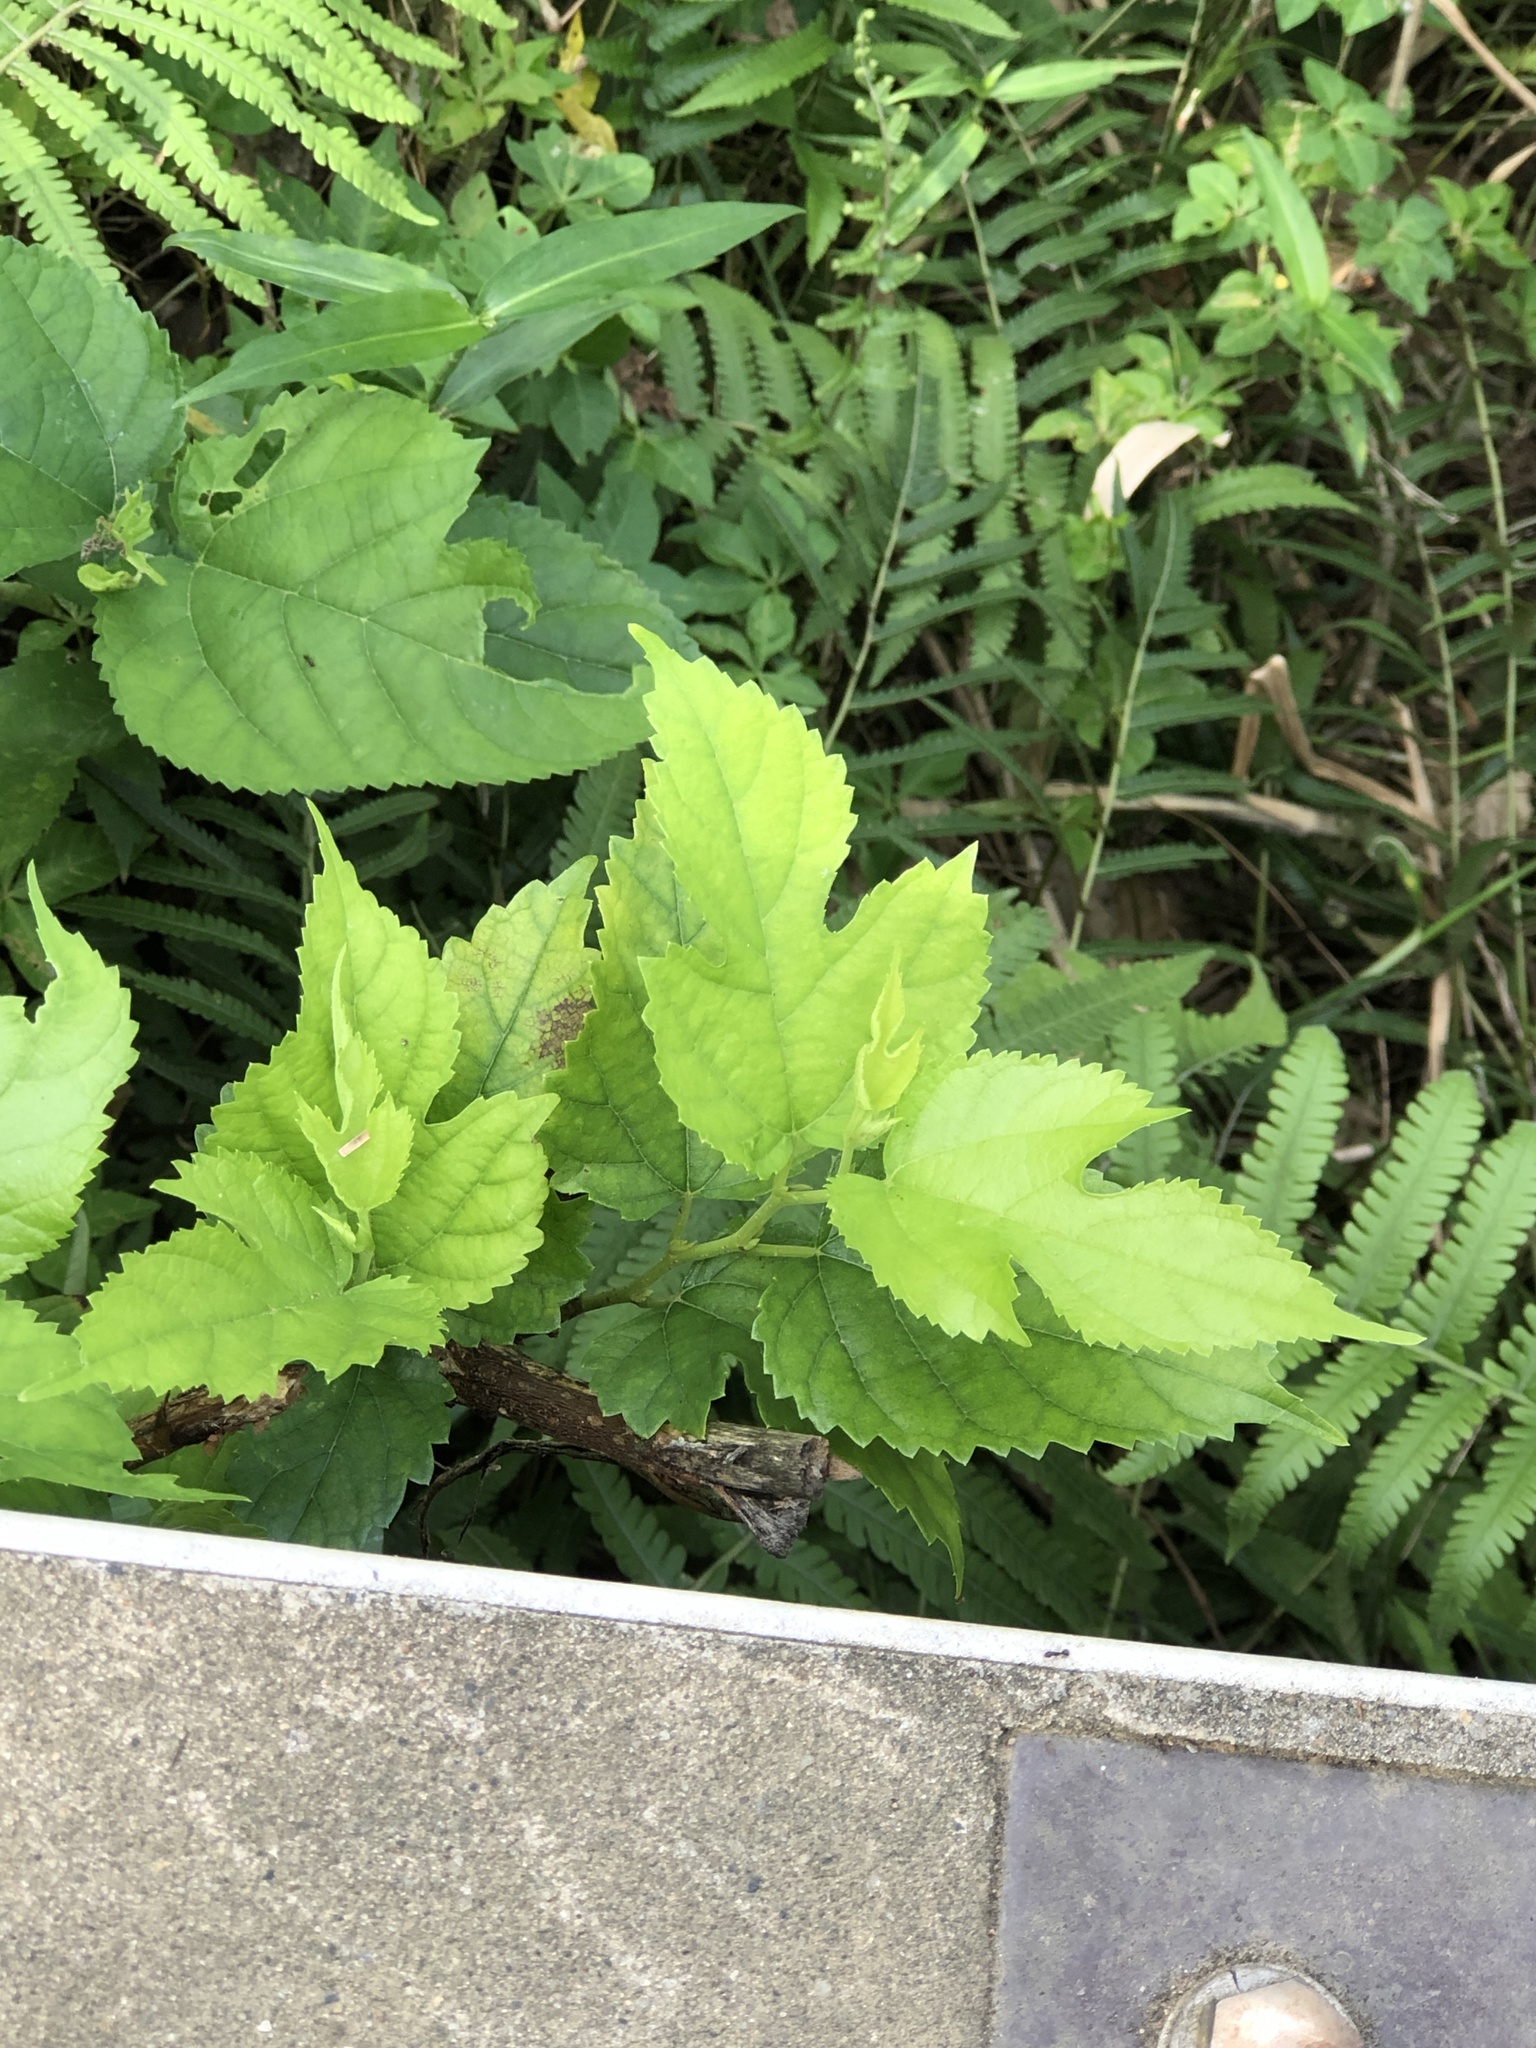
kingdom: Plantae
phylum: Tracheophyta
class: Magnoliopsida
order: Rosales
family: Moraceae
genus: Morus
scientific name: Morus indica
